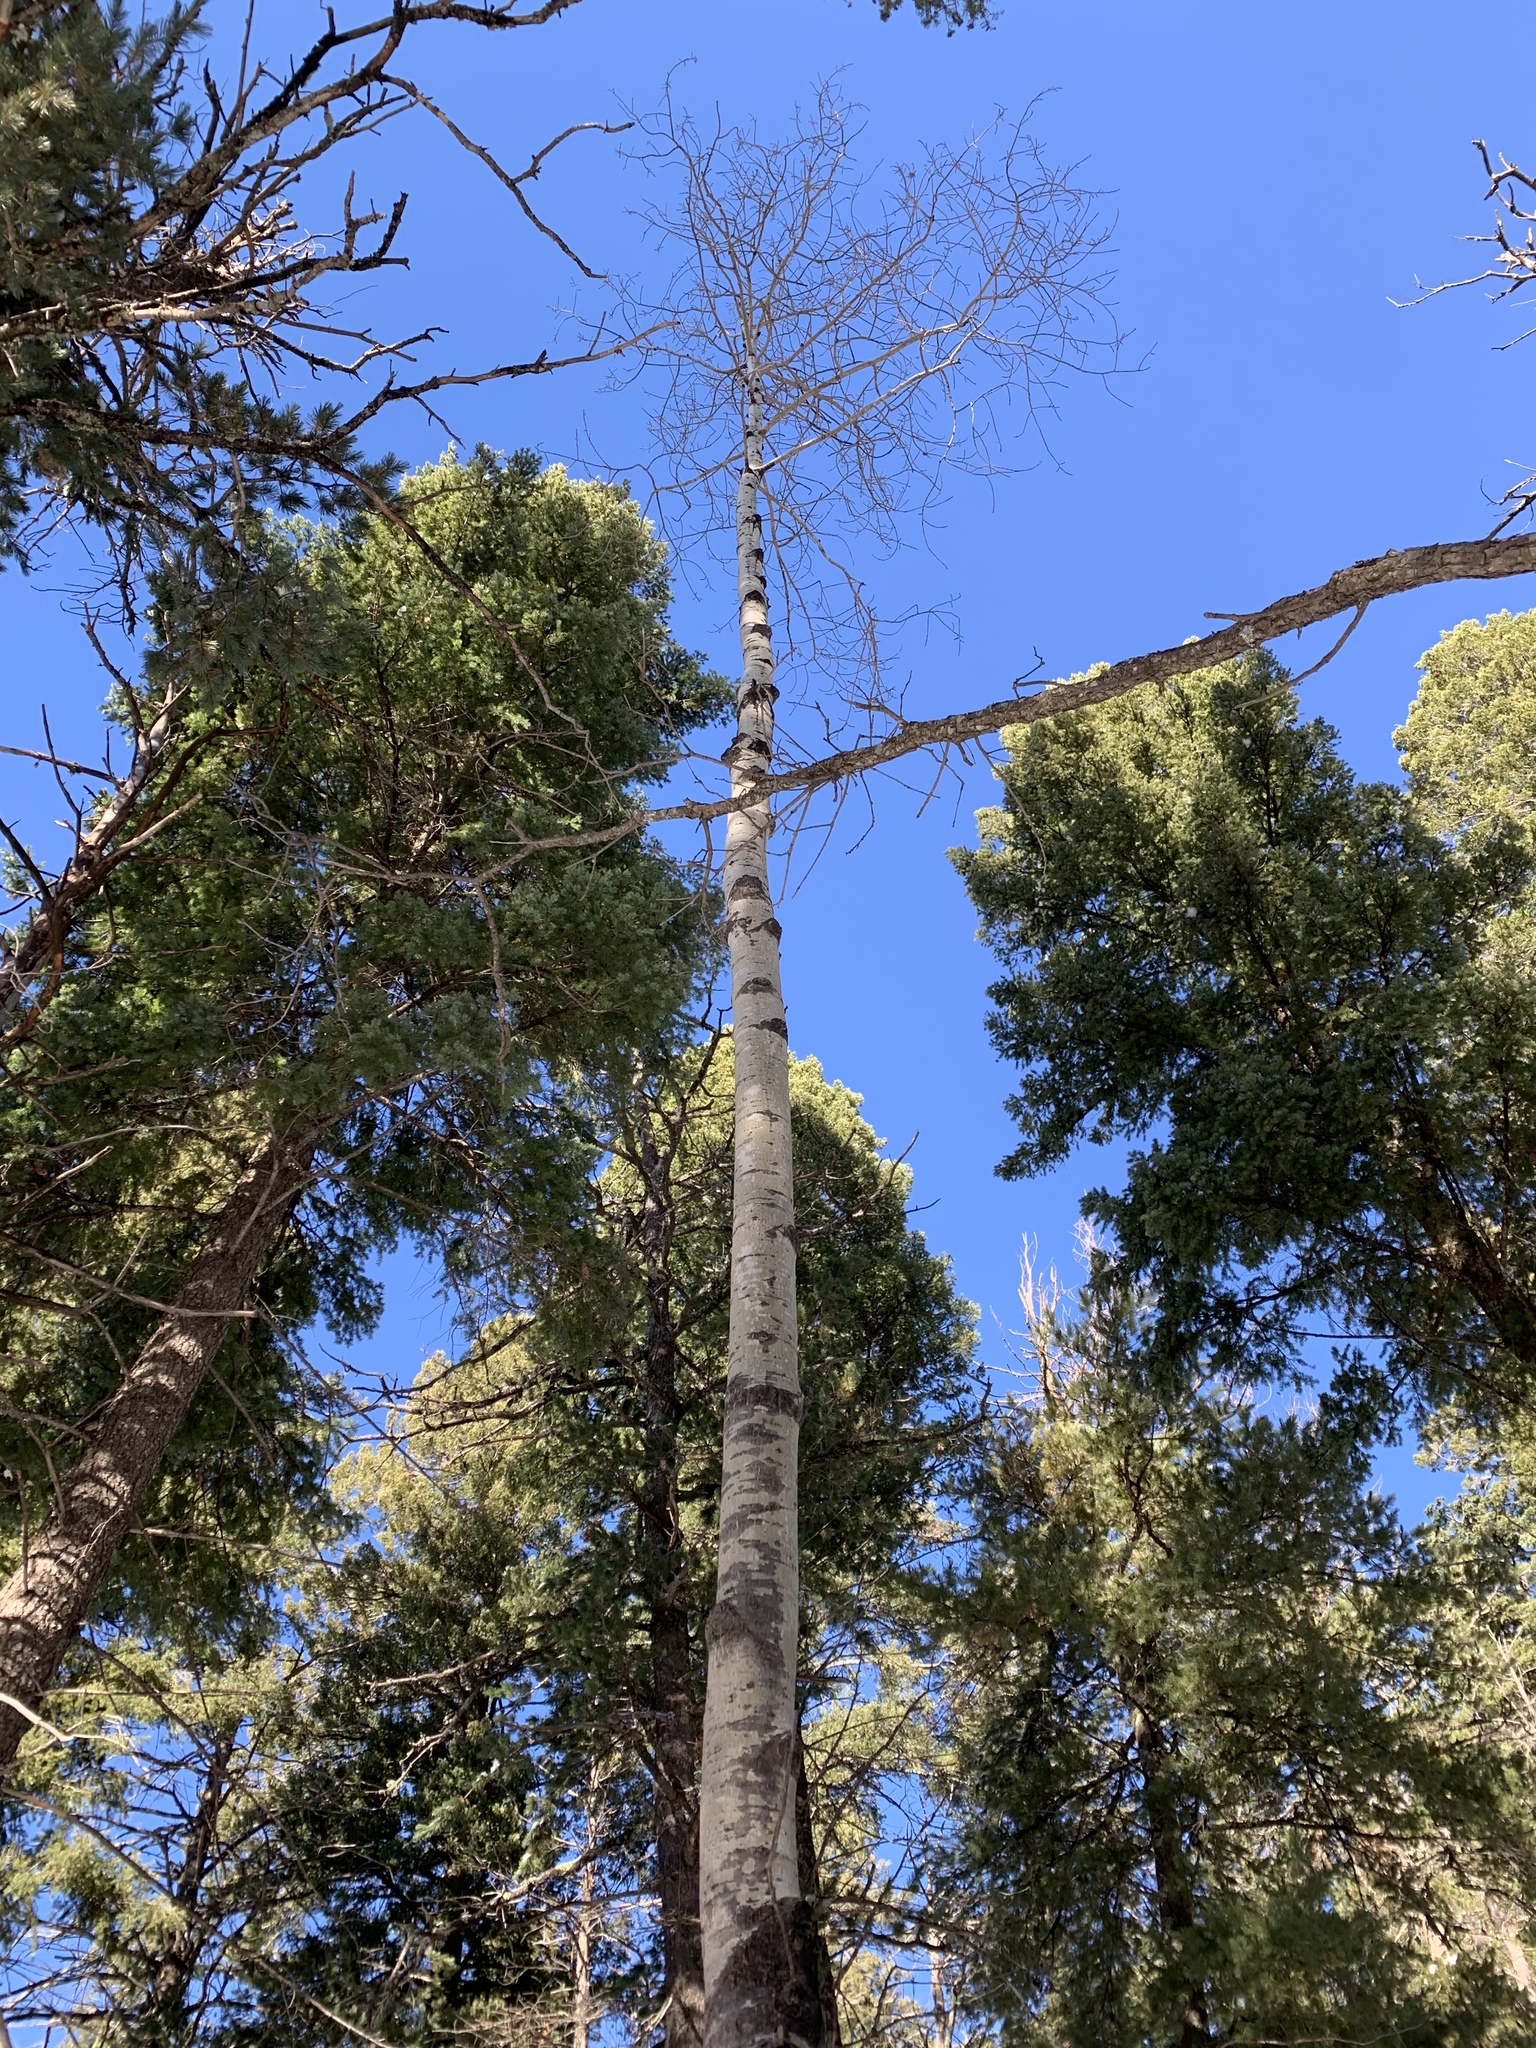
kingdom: Plantae
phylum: Tracheophyta
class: Magnoliopsida
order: Malpighiales
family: Salicaceae
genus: Populus
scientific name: Populus tremuloides
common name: Quaking aspen
